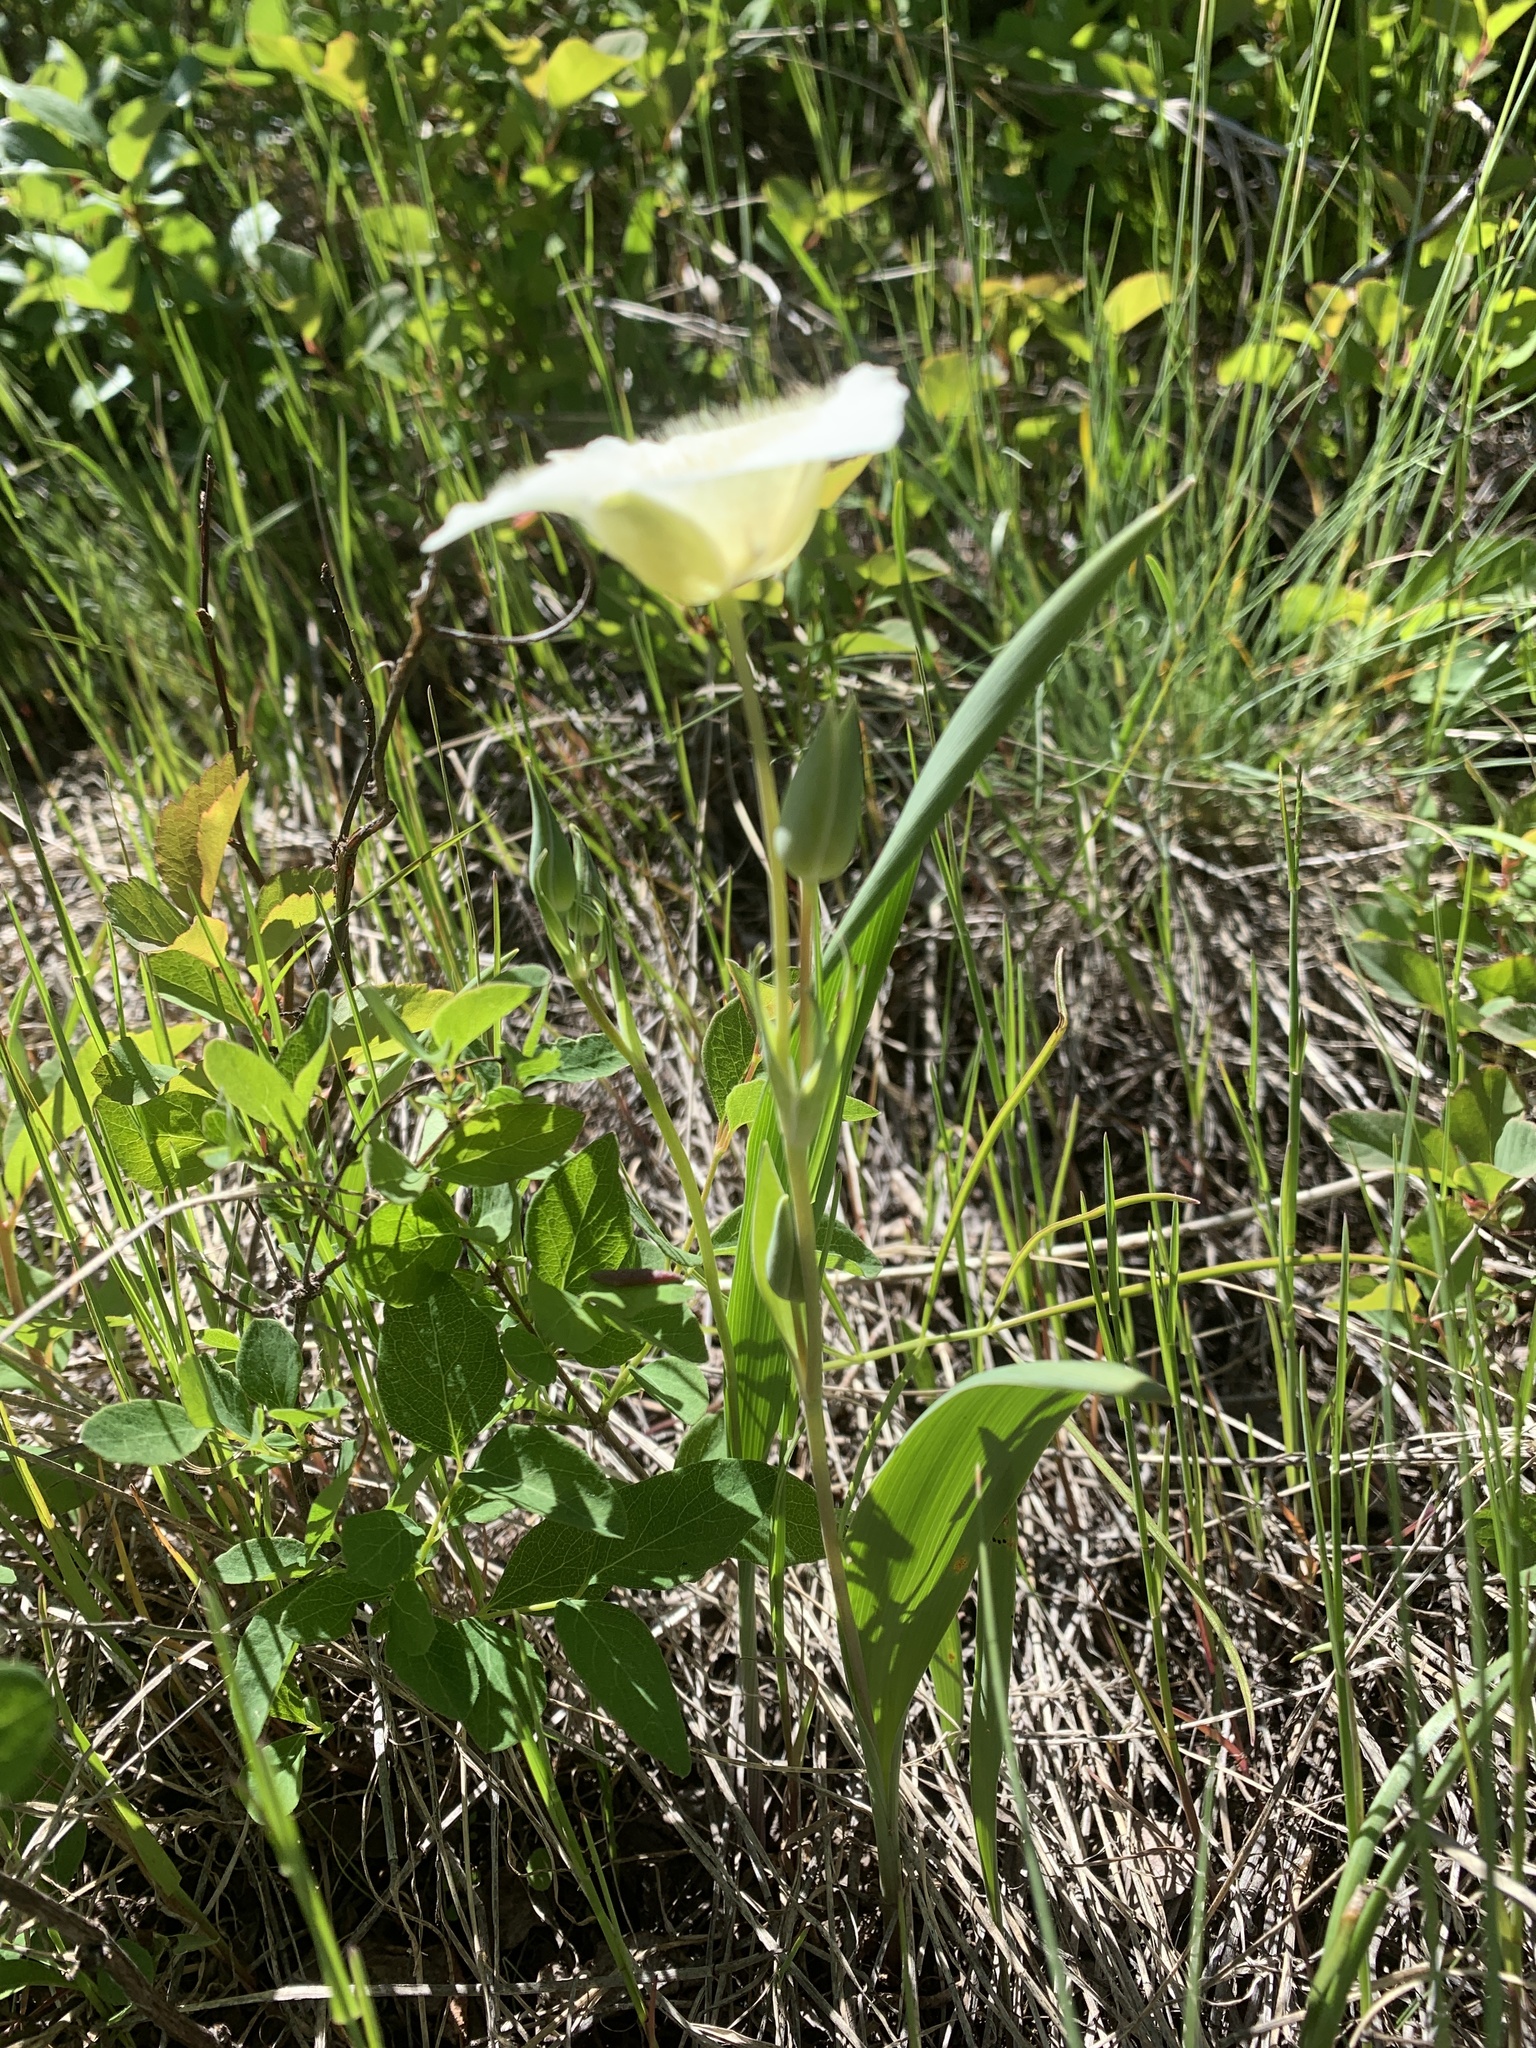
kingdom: Plantae
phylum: Tracheophyta
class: Liliopsida
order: Liliales
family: Liliaceae
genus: Calochortus
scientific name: Calochortus apiculatus
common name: Baker's mariposa lily
